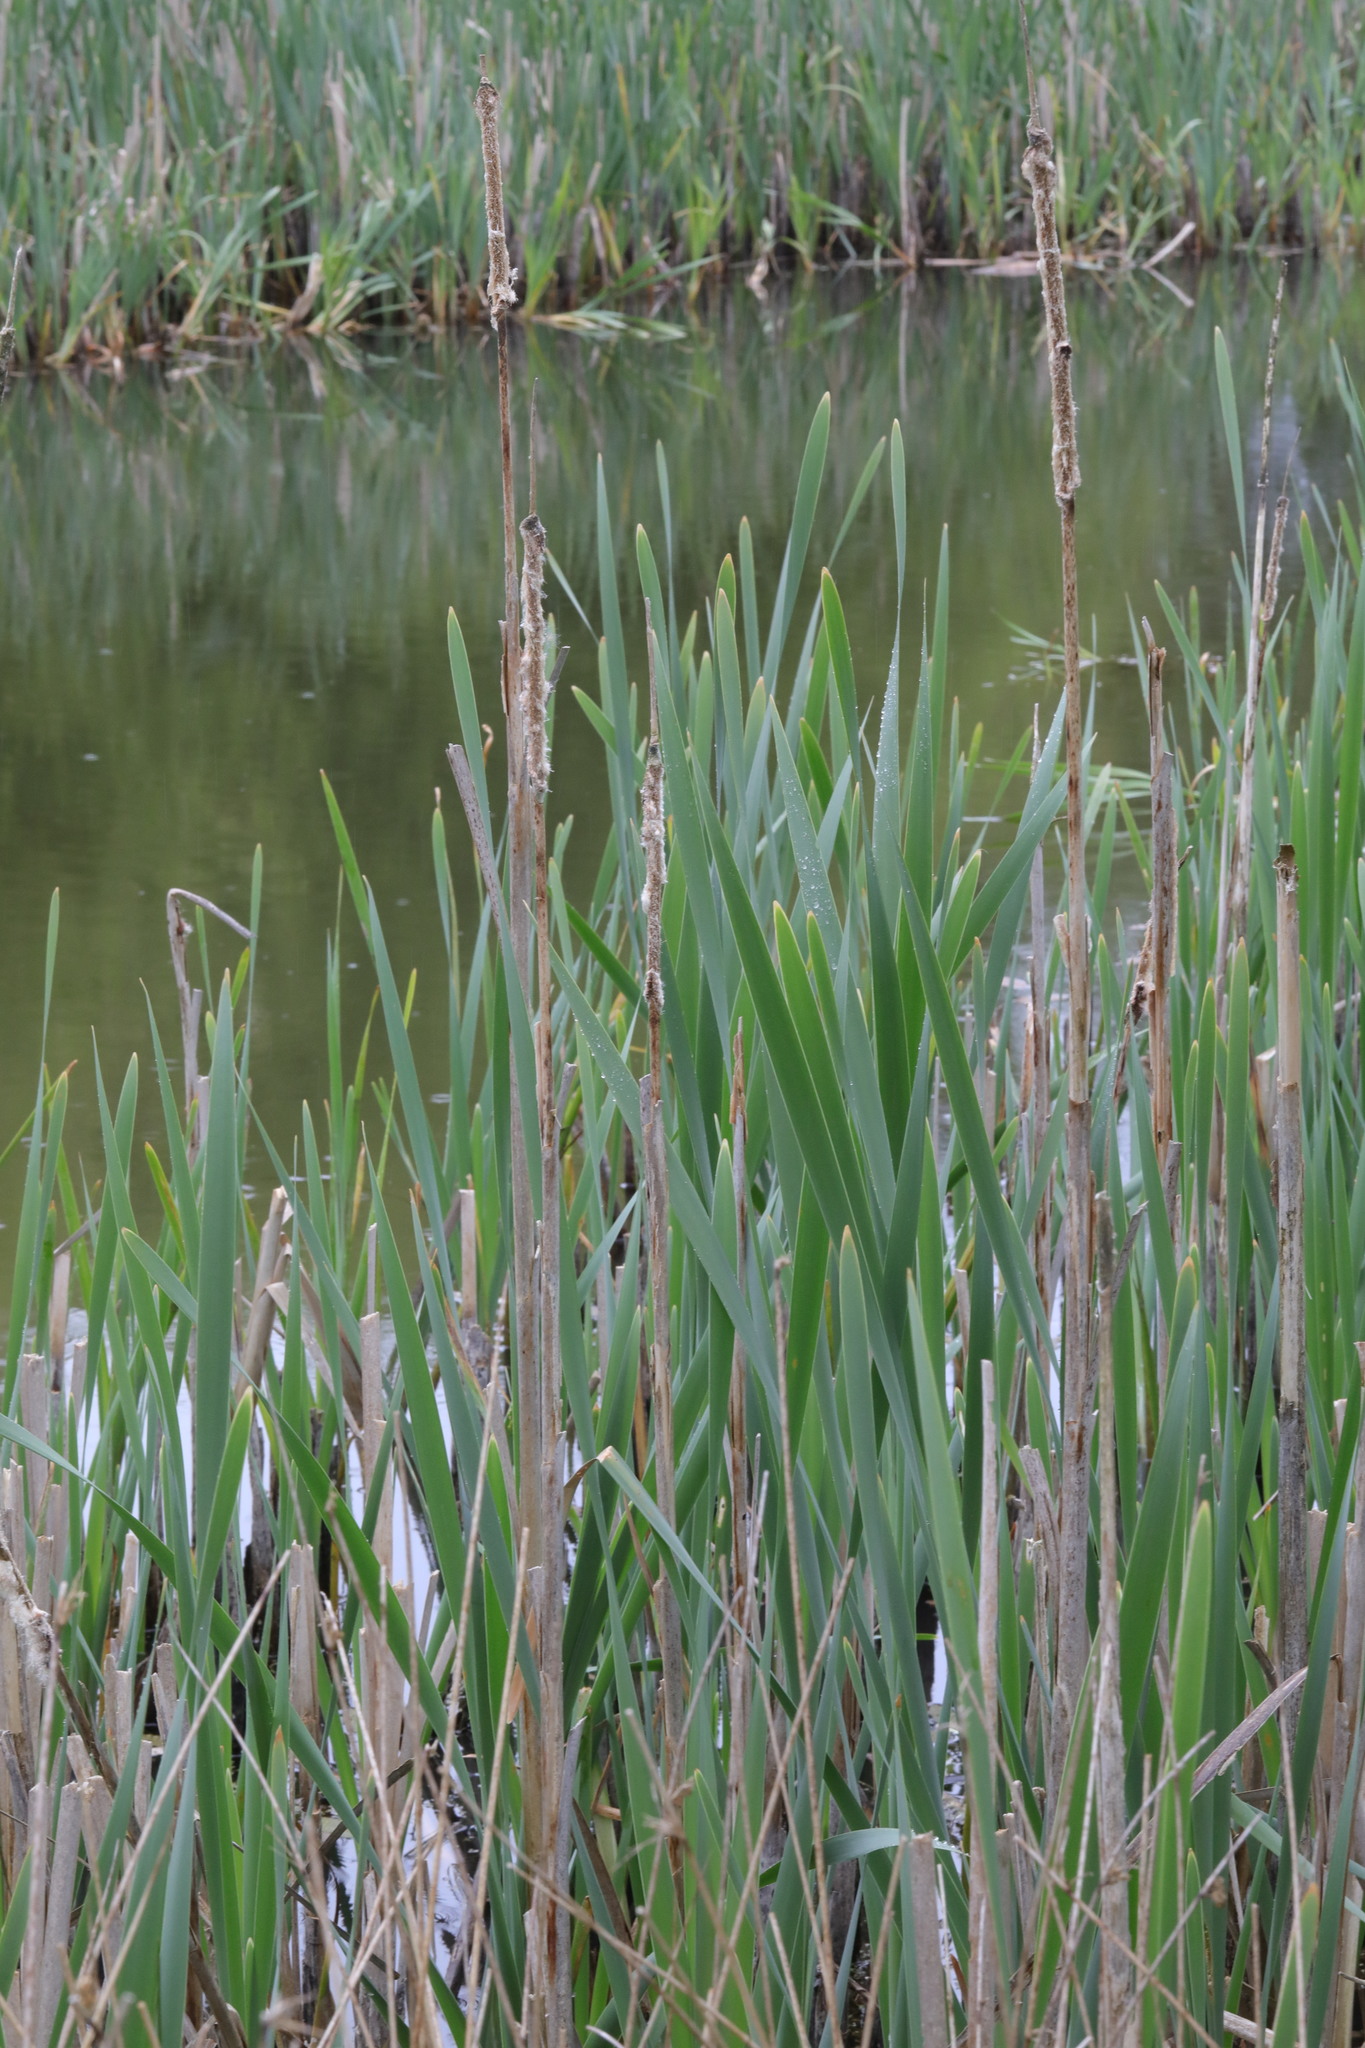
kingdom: Plantae
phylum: Tracheophyta
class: Liliopsida
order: Poales
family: Typhaceae
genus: Typha
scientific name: Typha latifolia
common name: Broadleaf cattail
